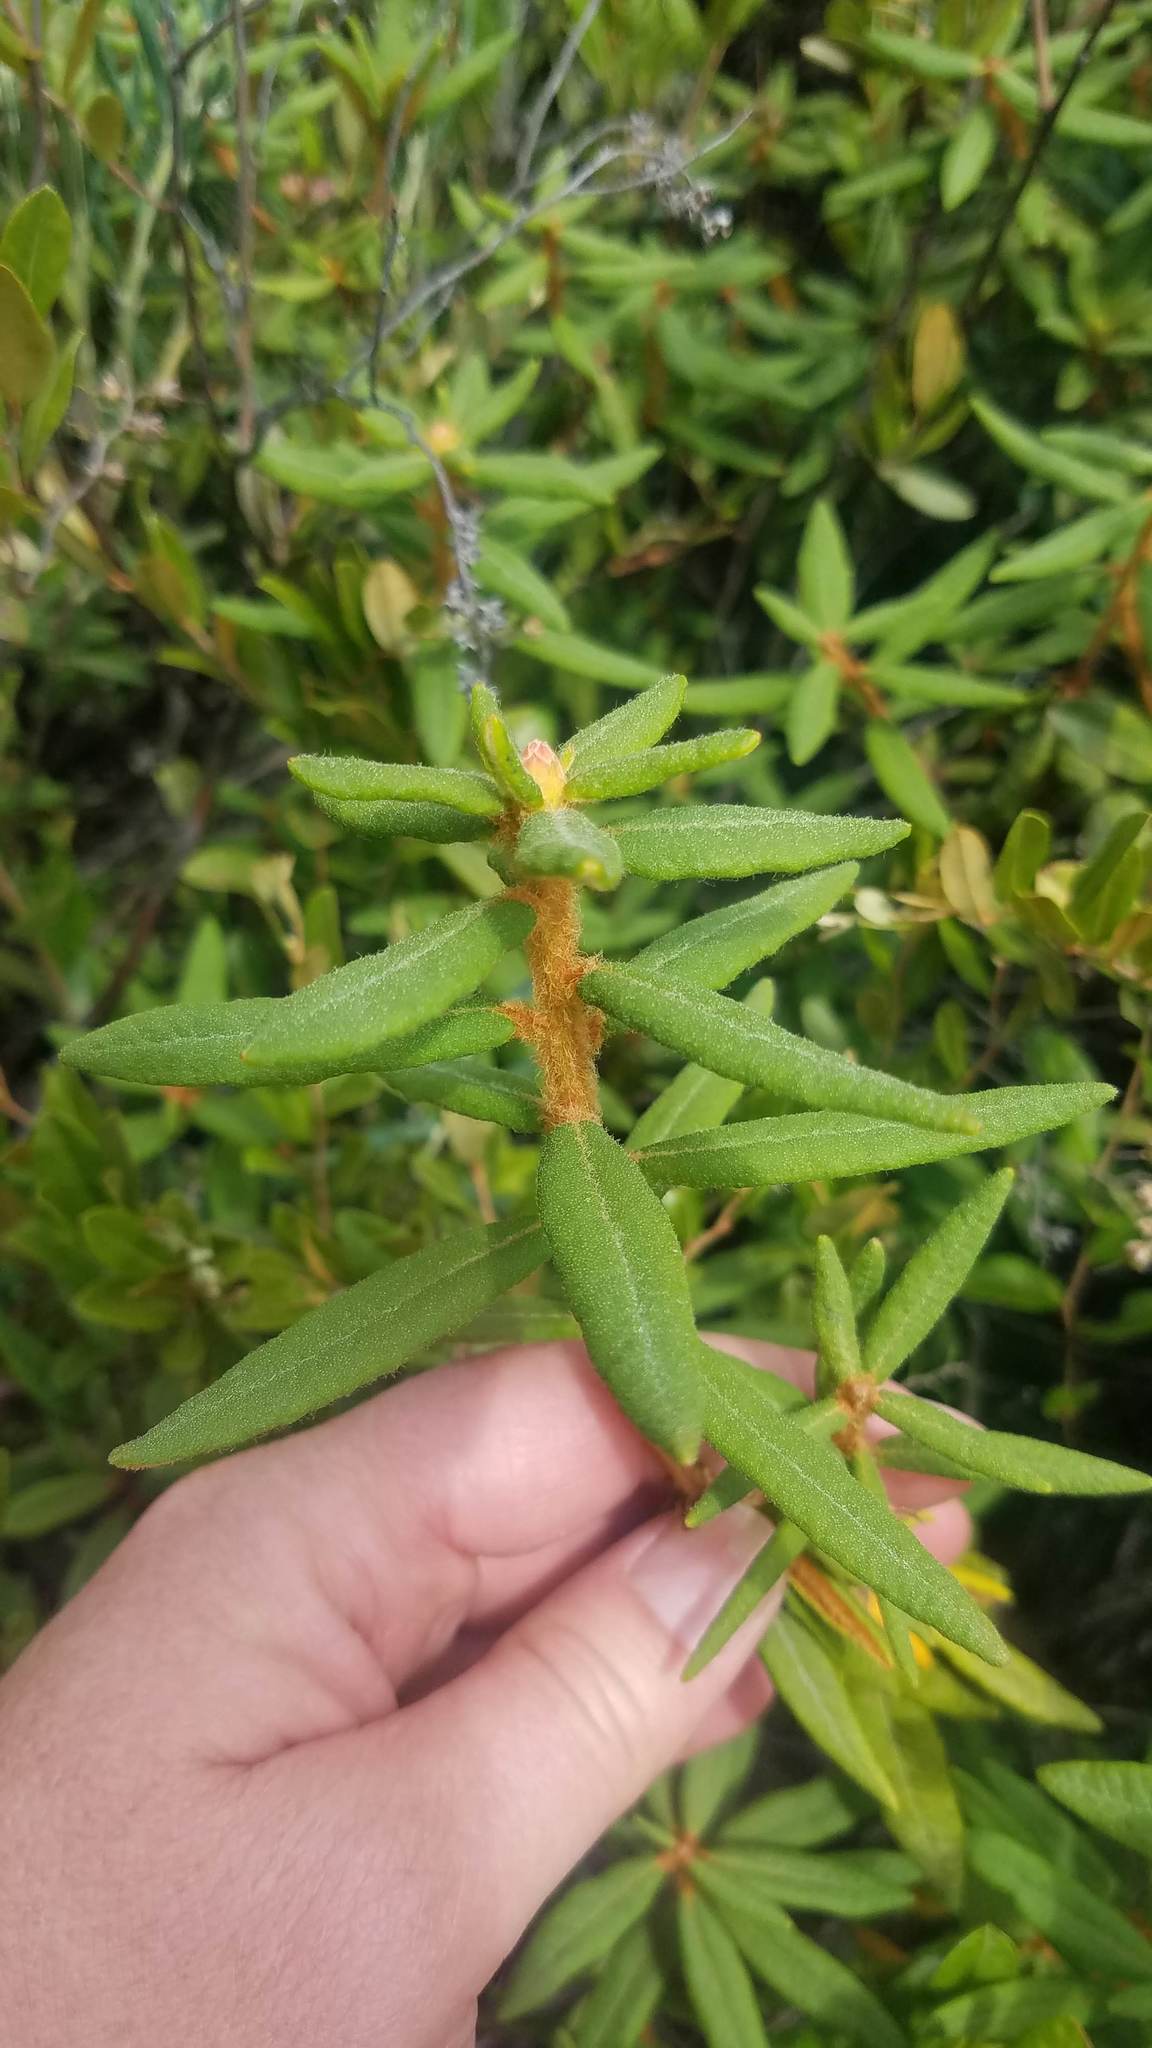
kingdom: Plantae
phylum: Tracheophyta
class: Magnoliopsida
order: Ericales
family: Ericaceae
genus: Rhododendron
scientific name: Rhododendron groenlandicum
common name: Bog labrador tea
